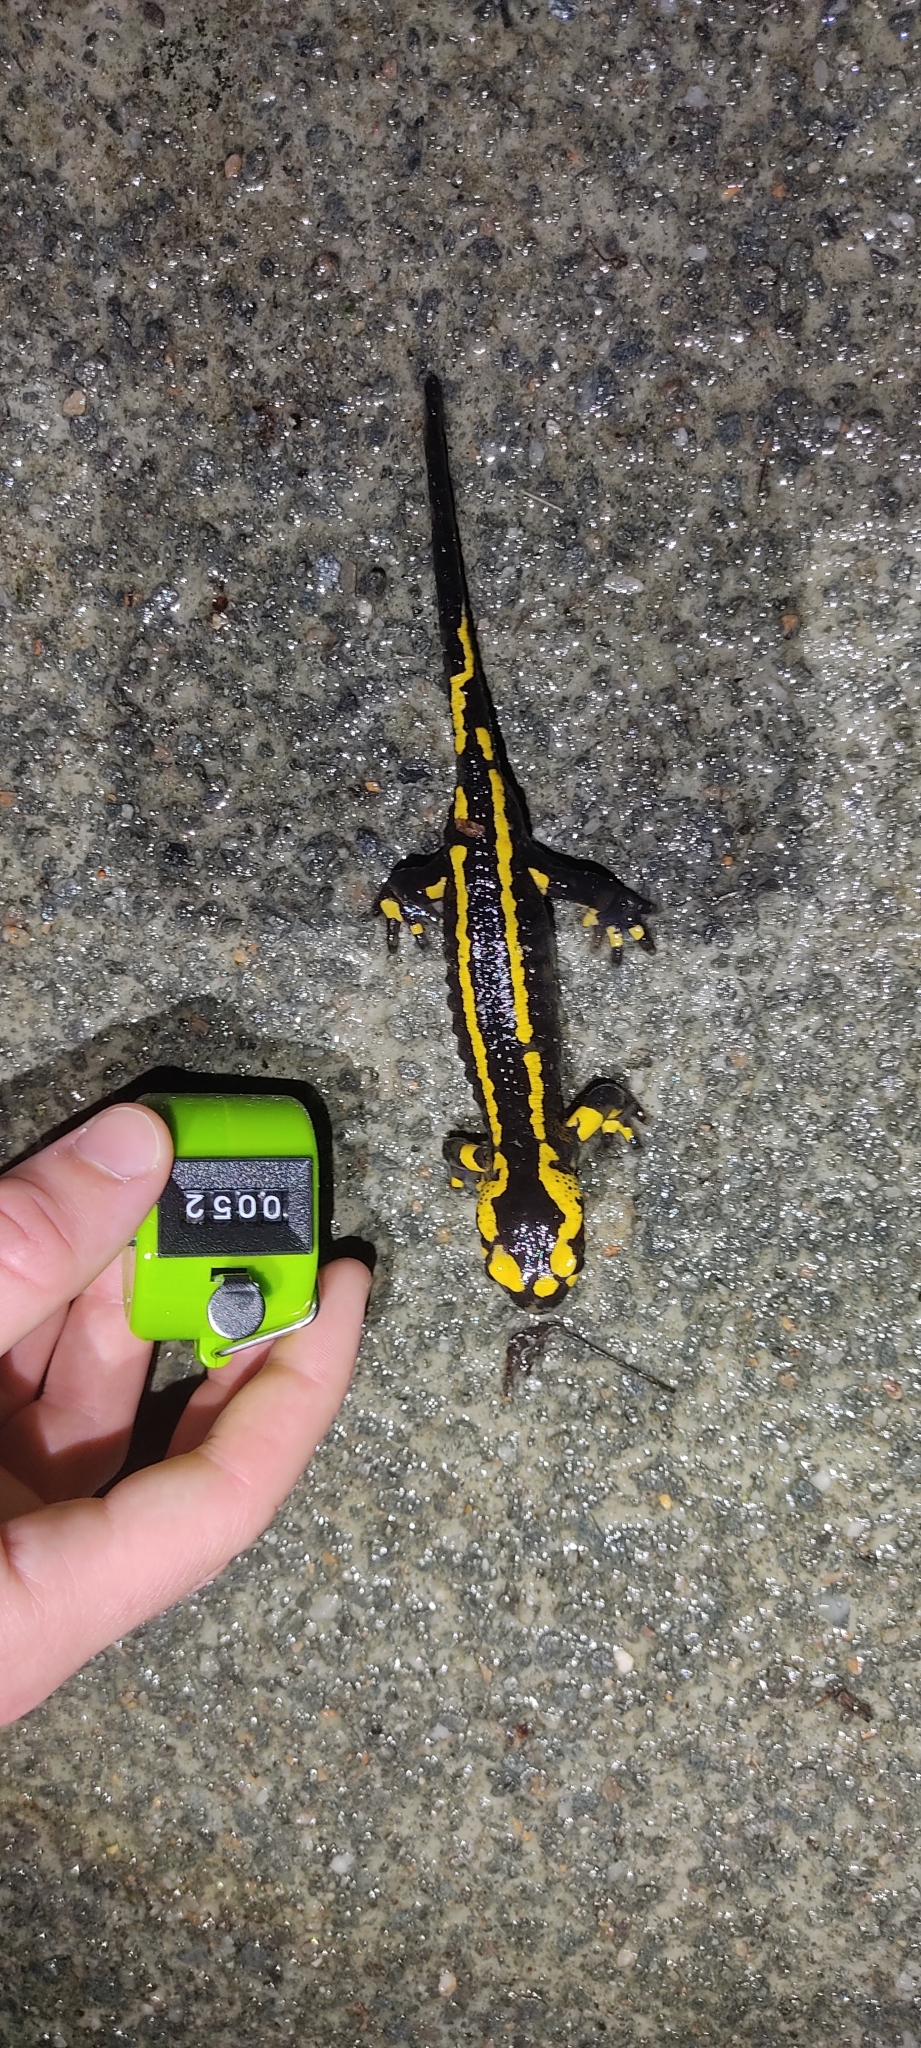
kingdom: Animalia
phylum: Chordata
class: Amphibia
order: Caudata
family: Salamandridae
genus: Salamandra
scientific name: Salamandra salamandra
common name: Fire salamander
